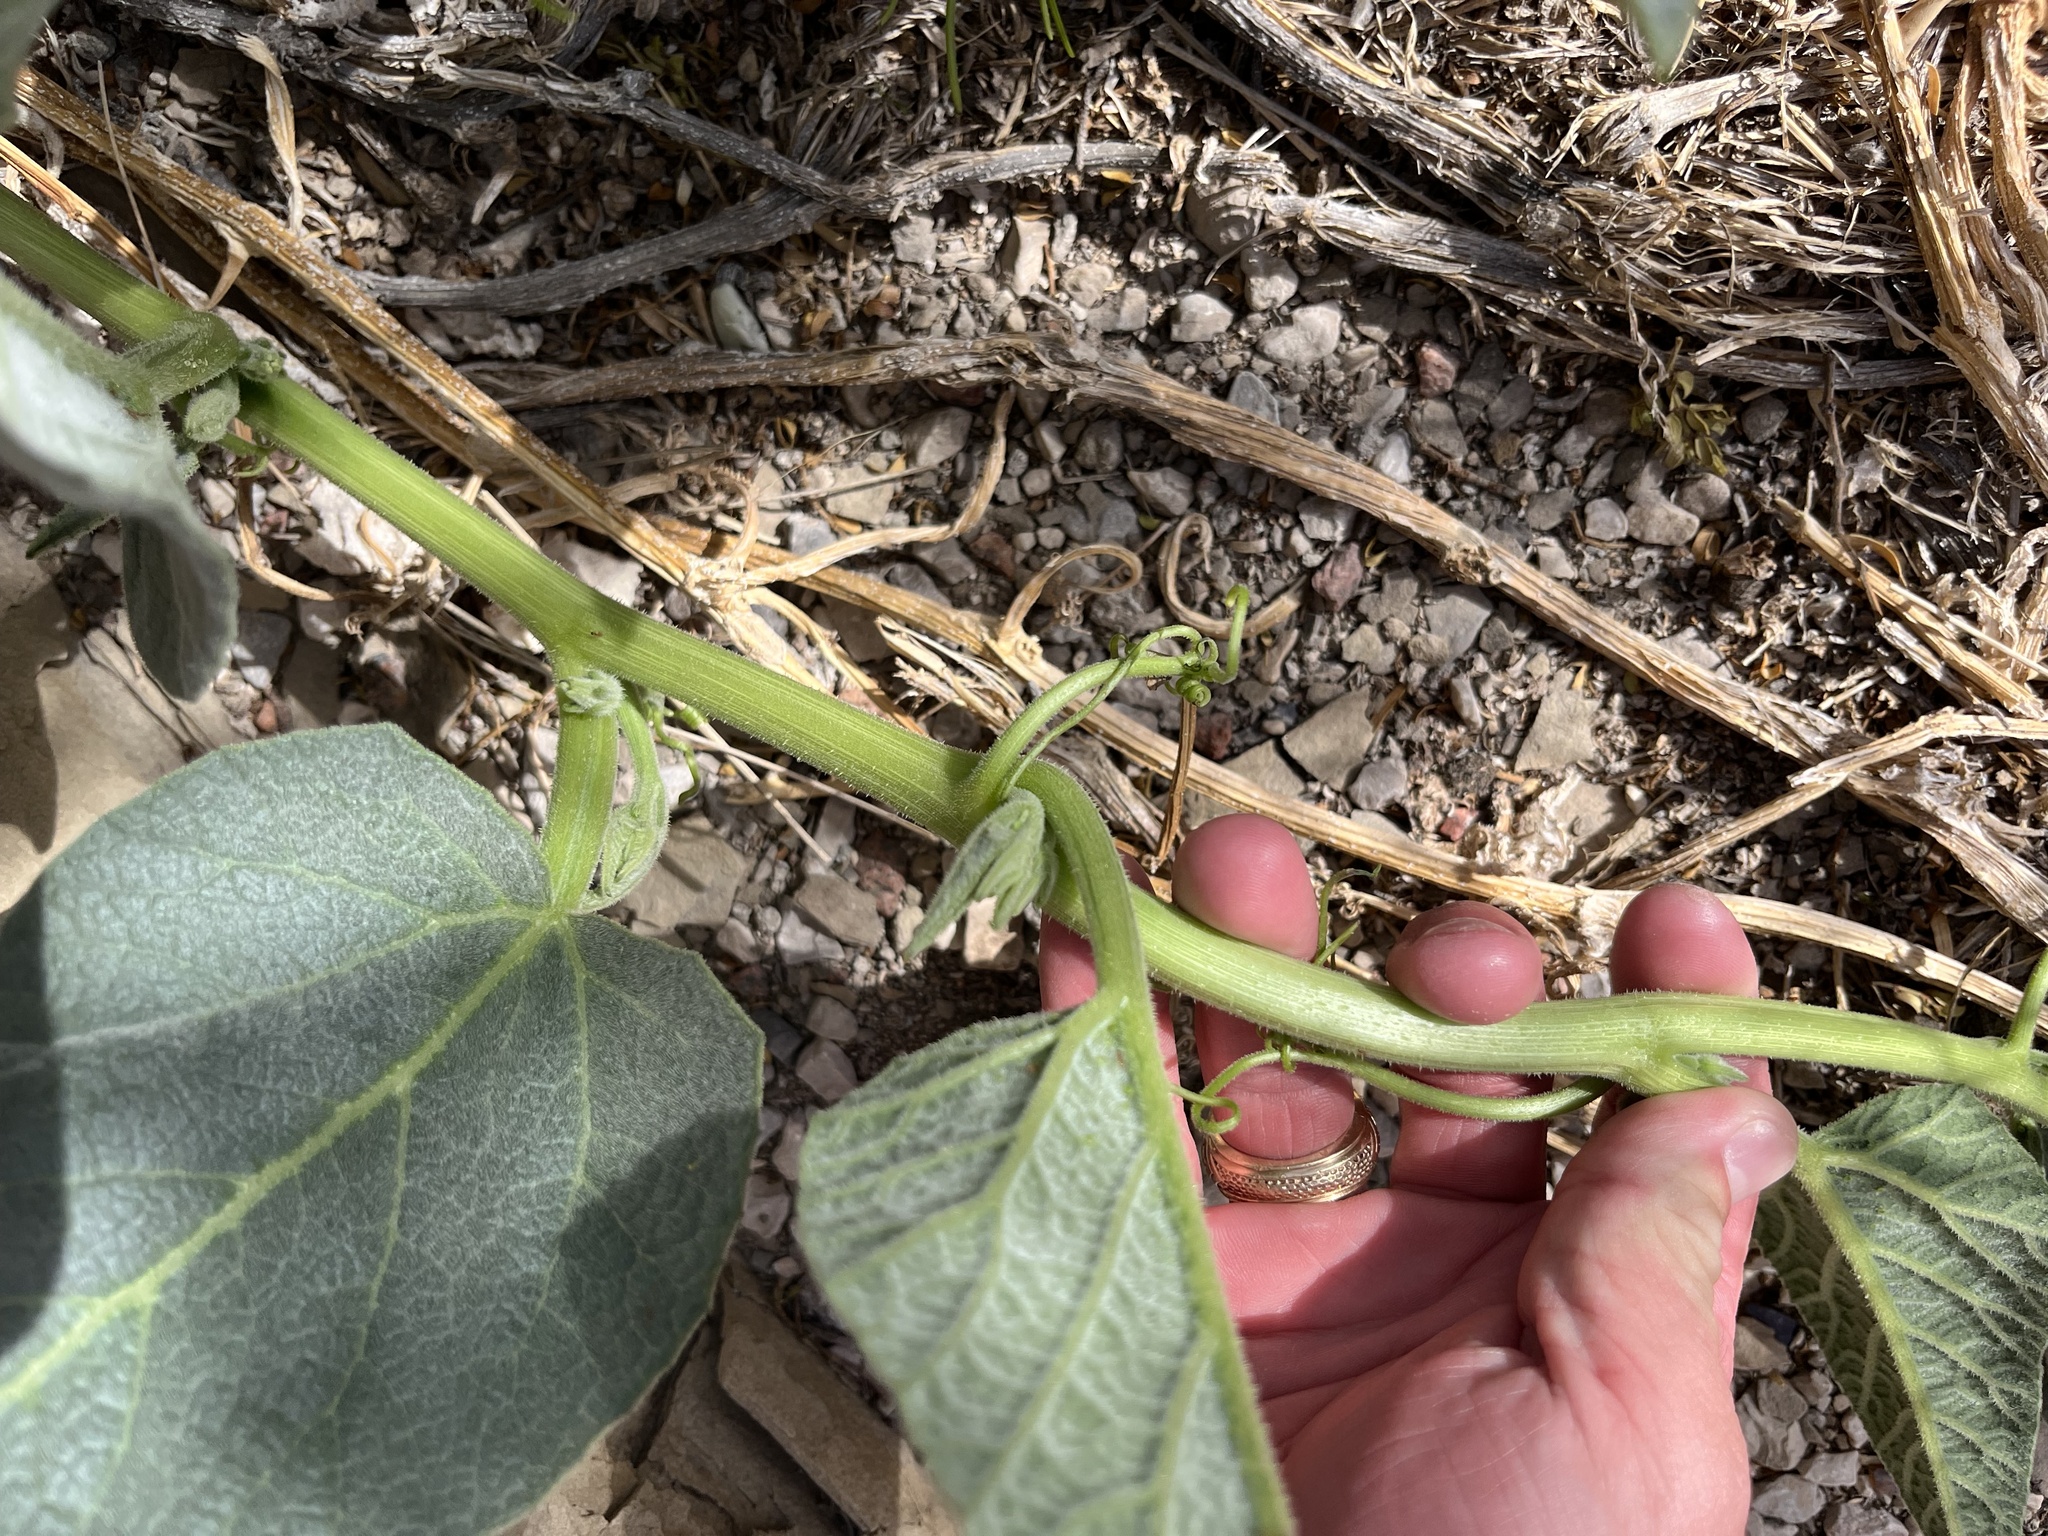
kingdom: Plantae
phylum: Tracheophyta
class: Magnoliopsida
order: Cucurbitales
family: Cucurbitaceae
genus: Cucurbita
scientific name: Cucurbita foetidissima
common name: Buffalo gourd
